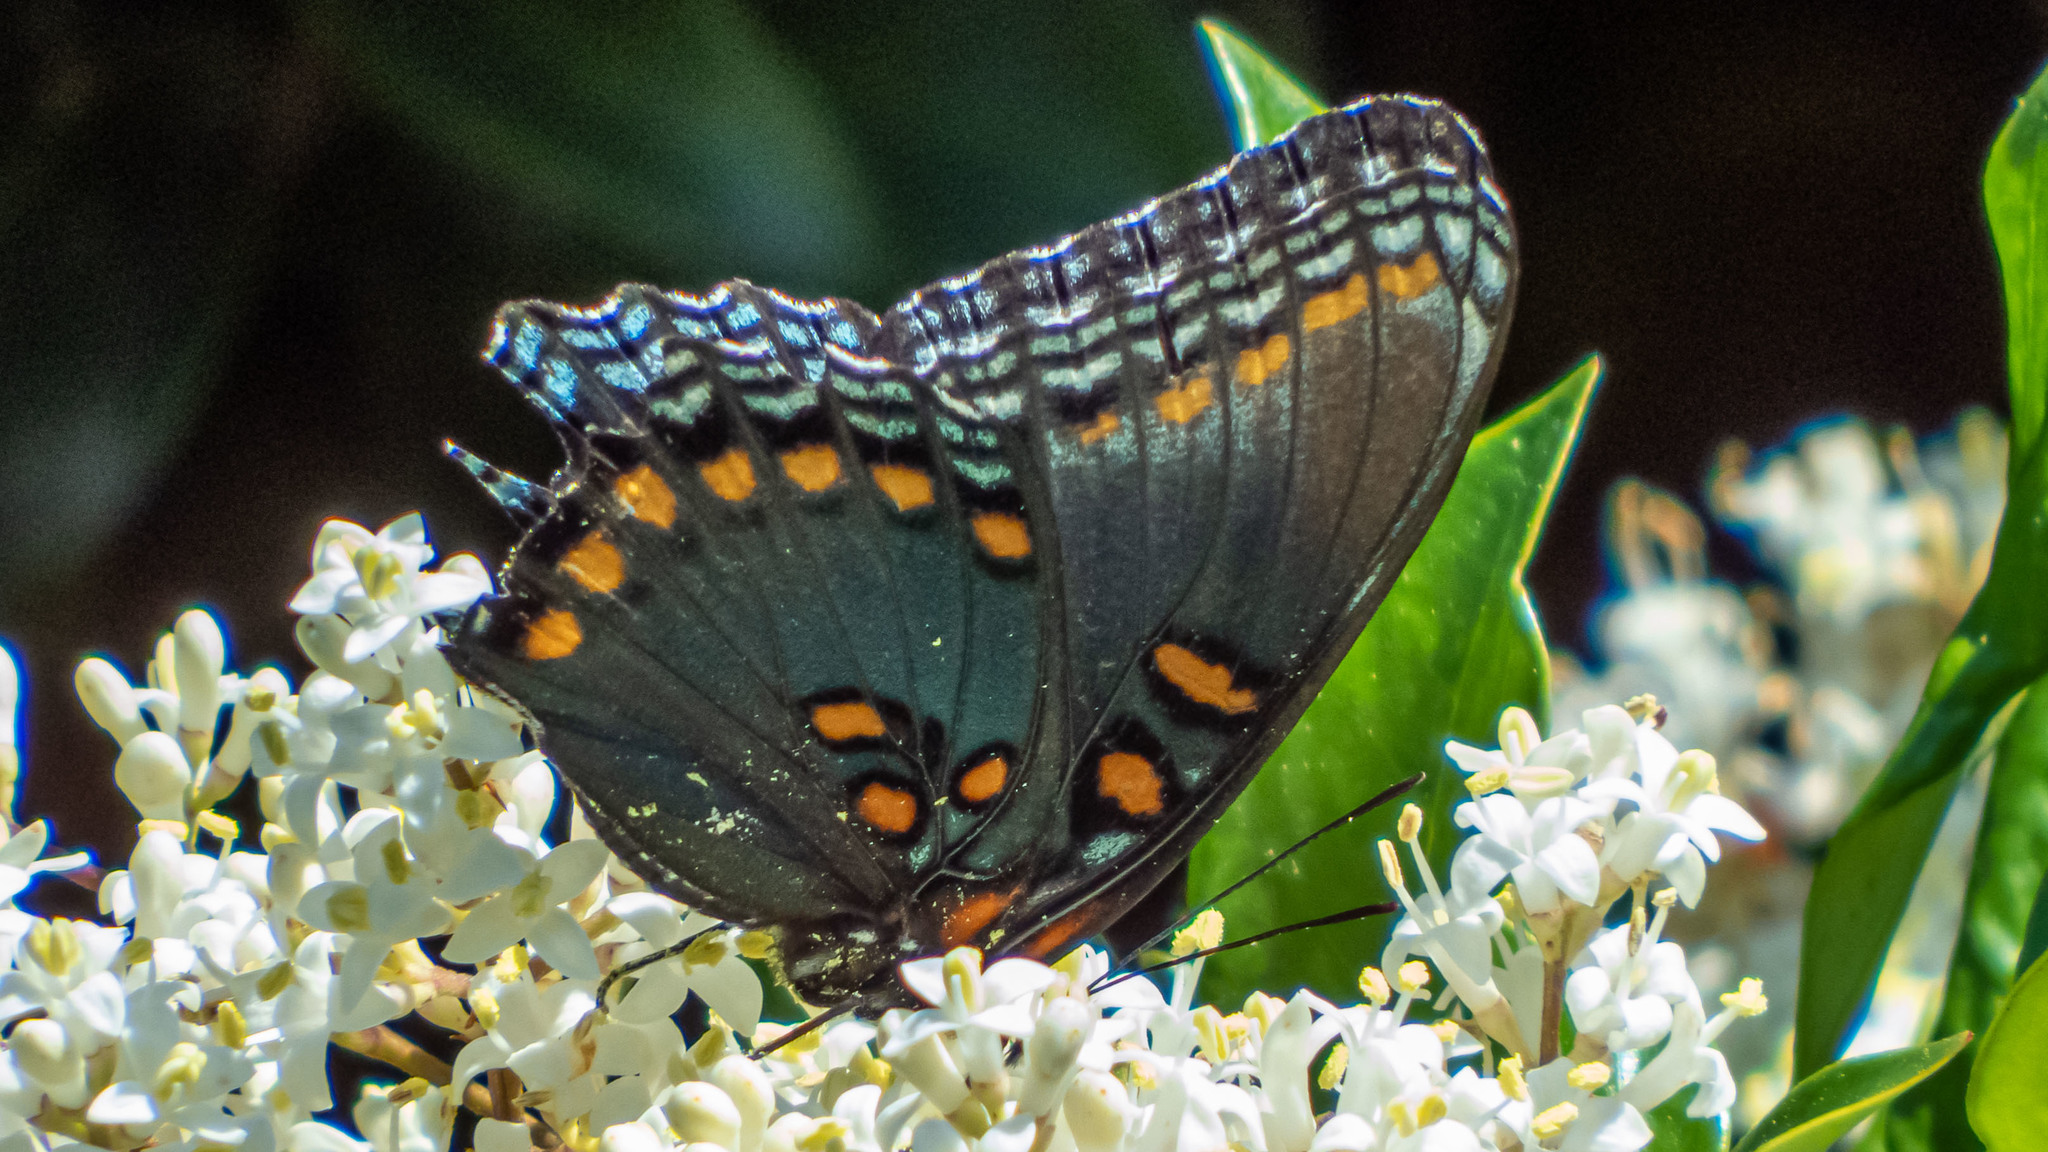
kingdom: Animalia
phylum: Arthropoda
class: Insecta
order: Lepidoptera
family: Nymphalidae
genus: Limenitis
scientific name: Limenitis astyanax
